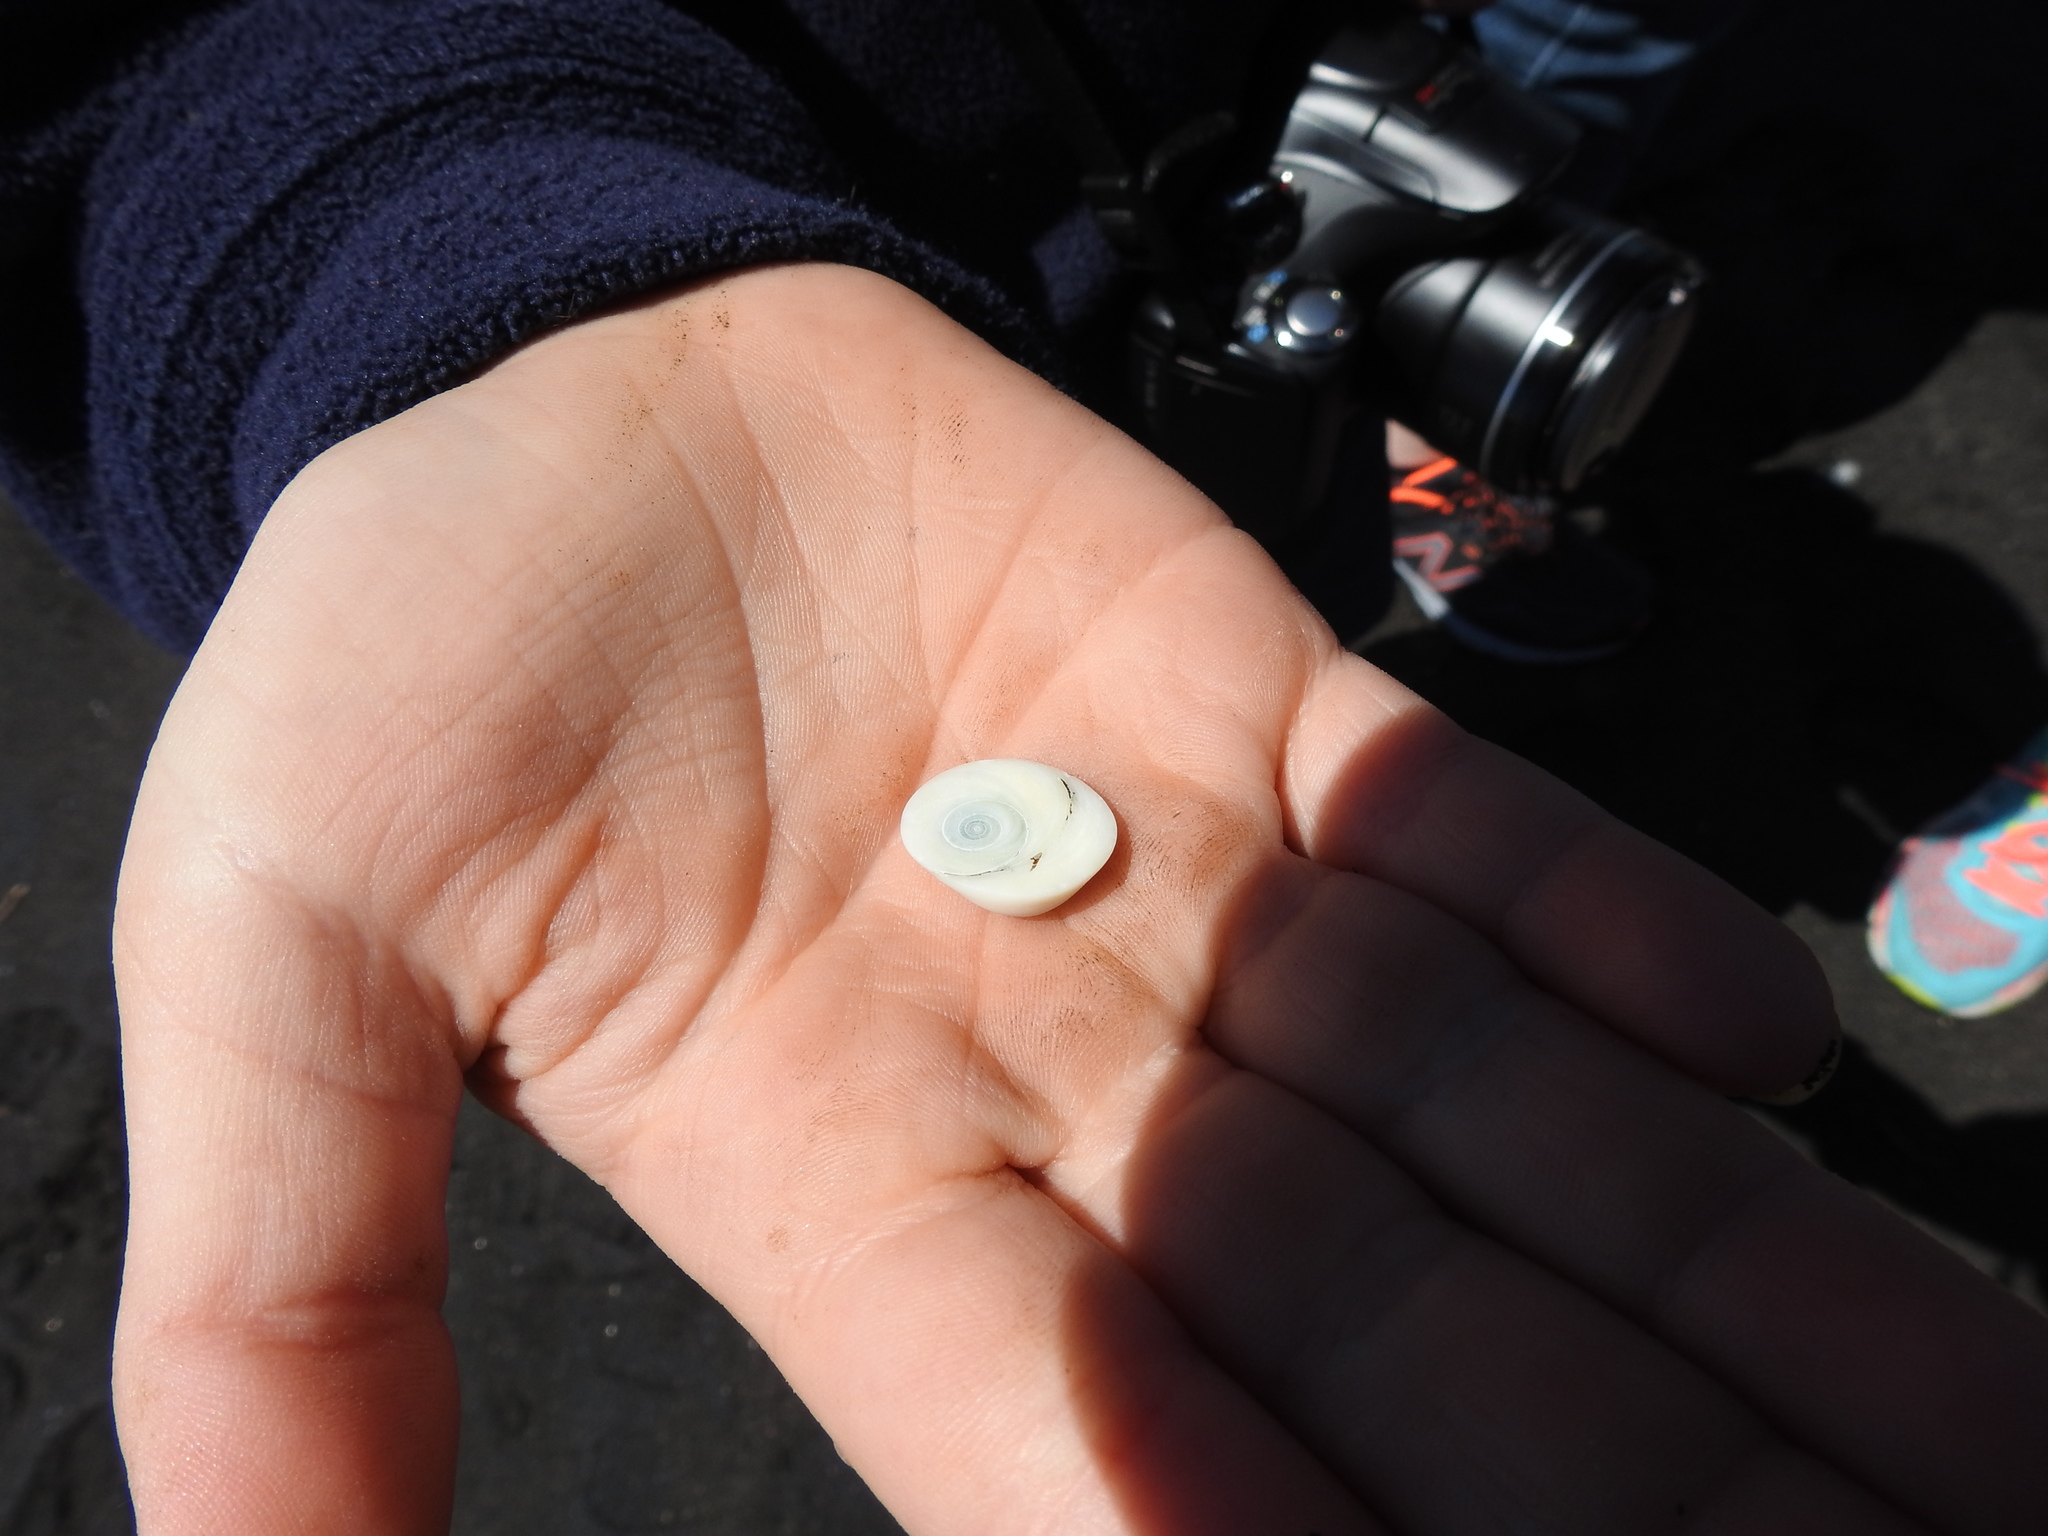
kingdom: Animalia
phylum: Mollusca
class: Gastropoda
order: Trochida
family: Turbinidae
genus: Lunella
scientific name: Lunella smaragda
